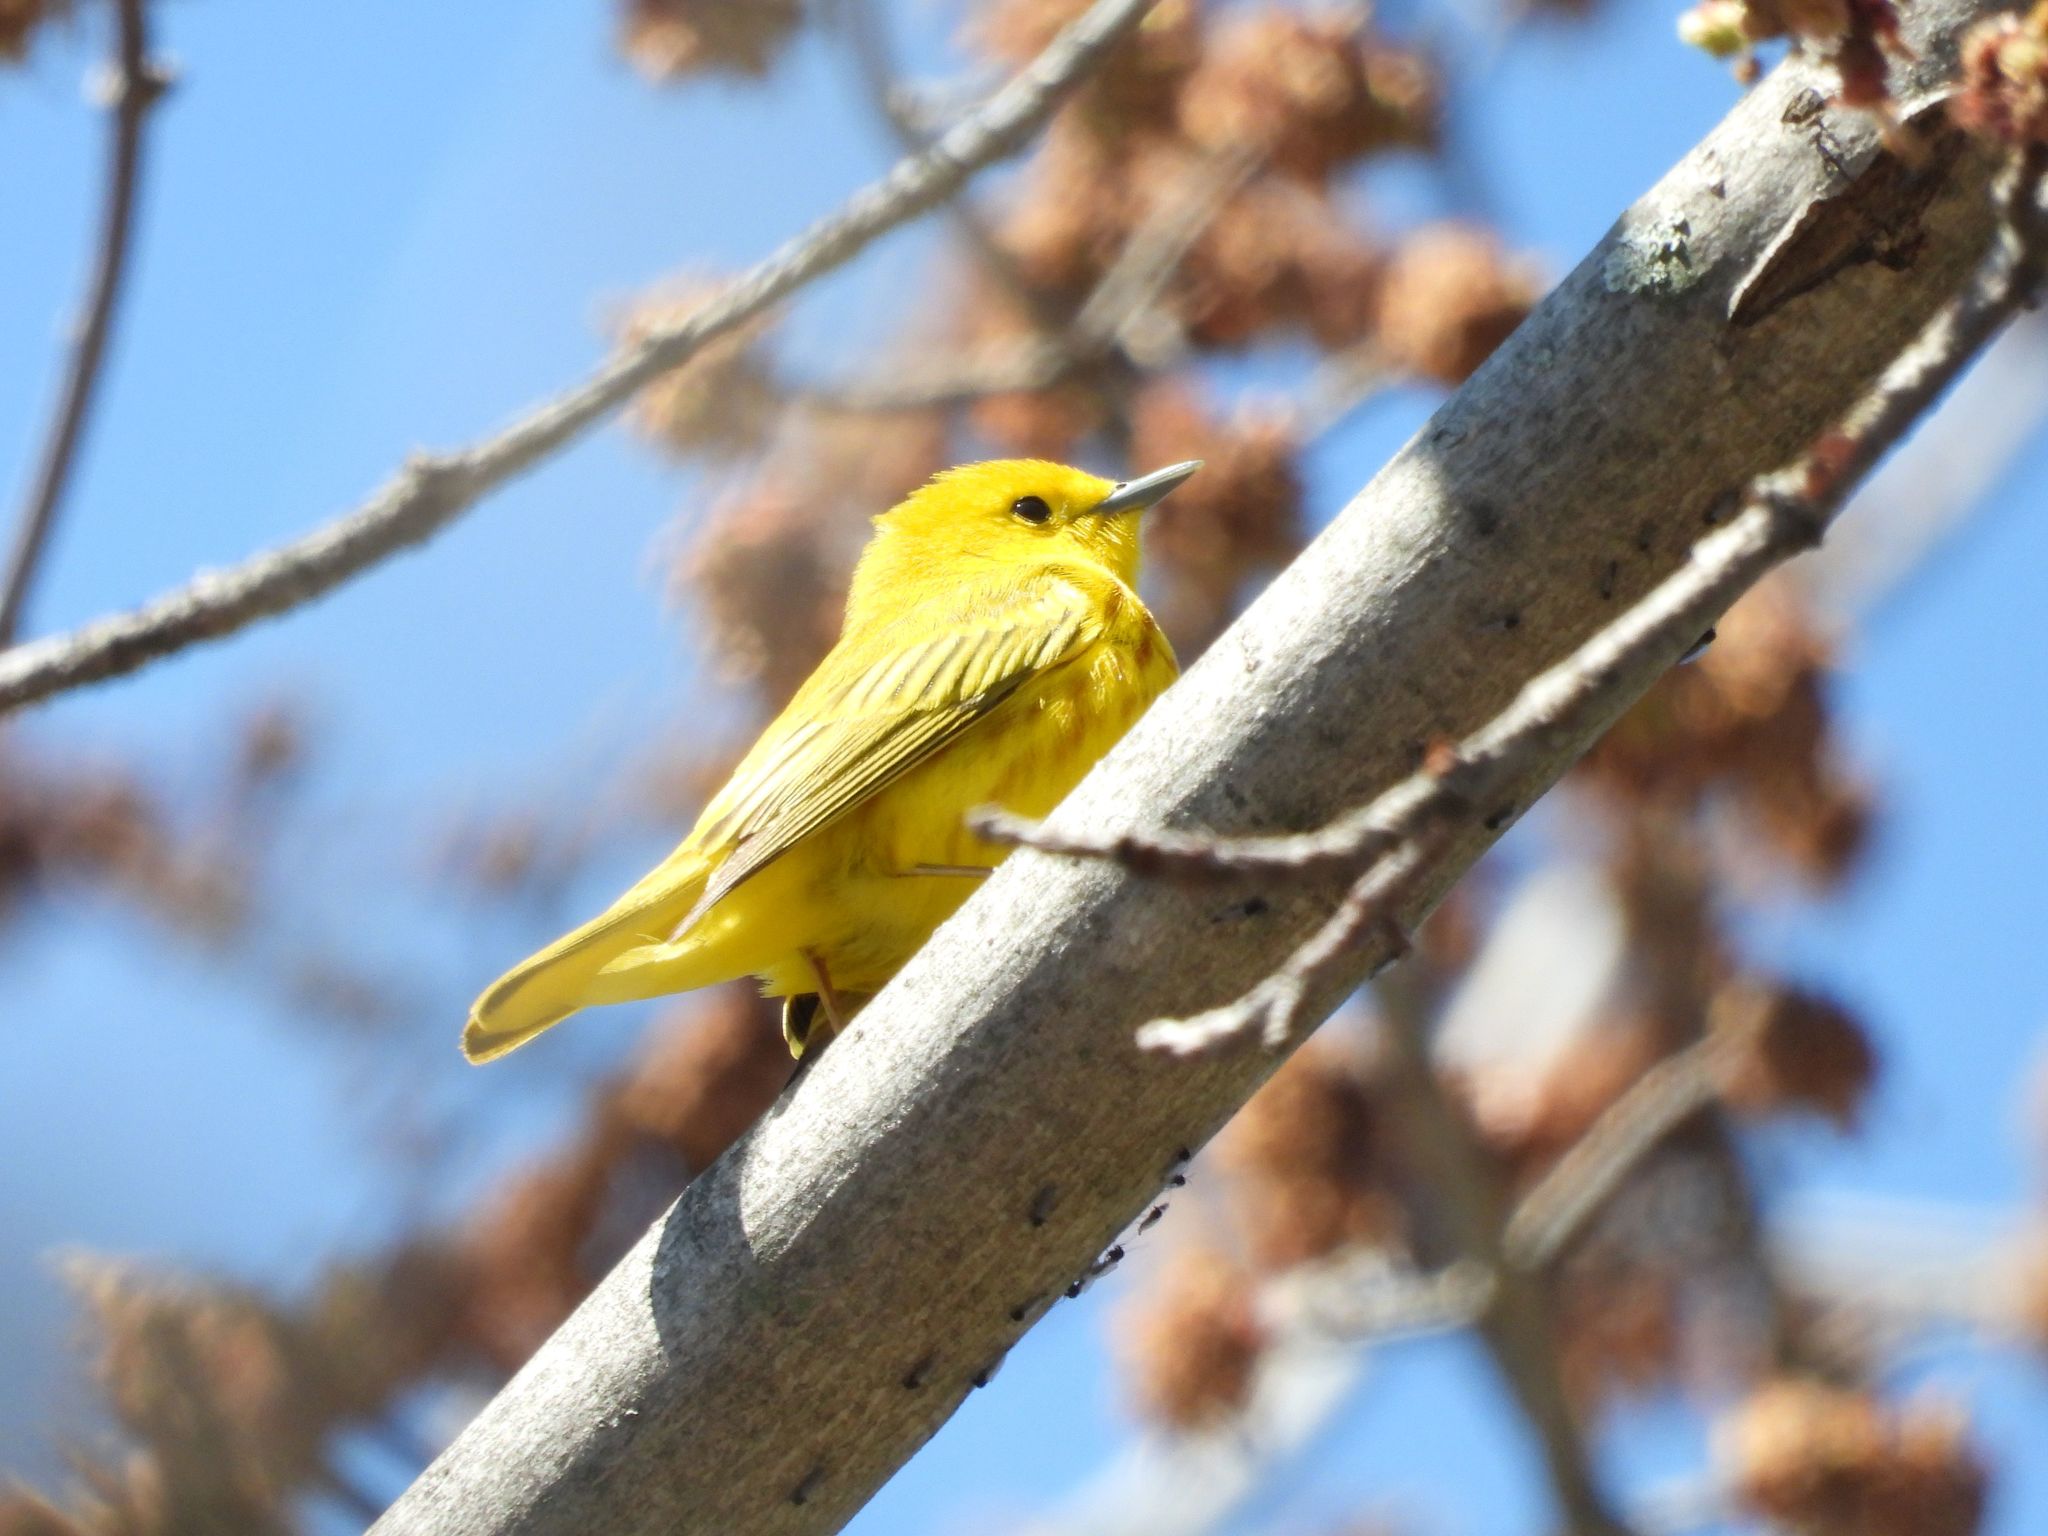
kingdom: Animalia
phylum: Chordata
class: Aves
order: Passeriformes
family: Parulidae
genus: Setophaga
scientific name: Setophaga petechia
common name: Yellow warbler
